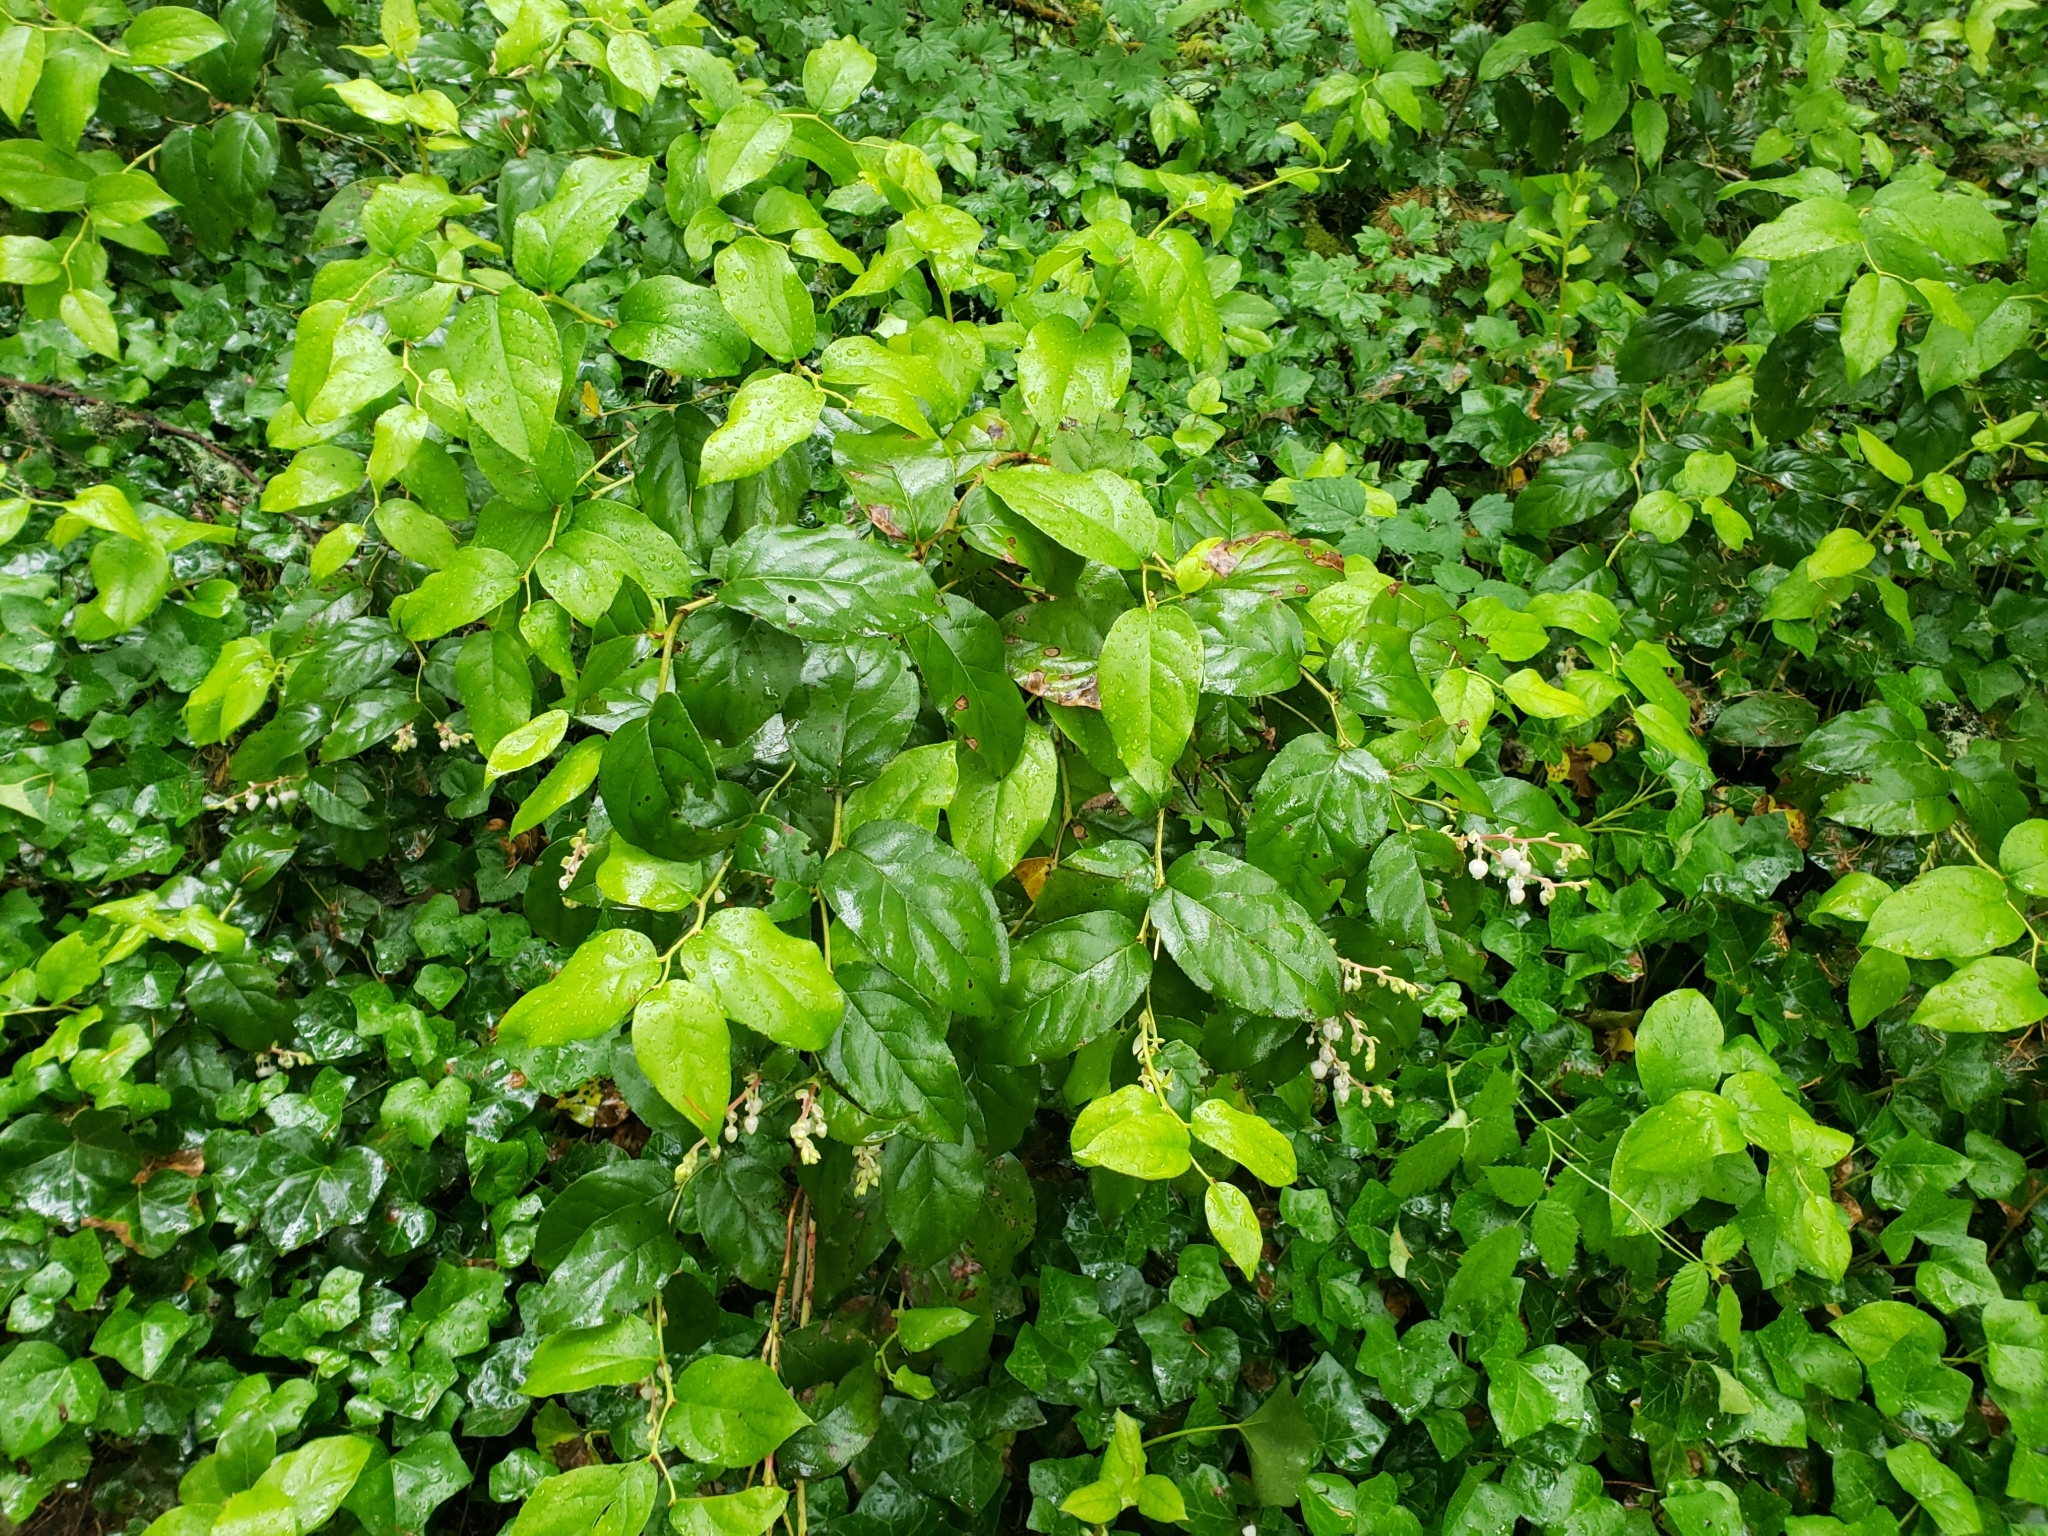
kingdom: Plantae
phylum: Tracheophyta
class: Magnoliopsida
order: Ericales
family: Ericaceae
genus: Gaultheria
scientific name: Gaultheria shallon
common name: Shallon
